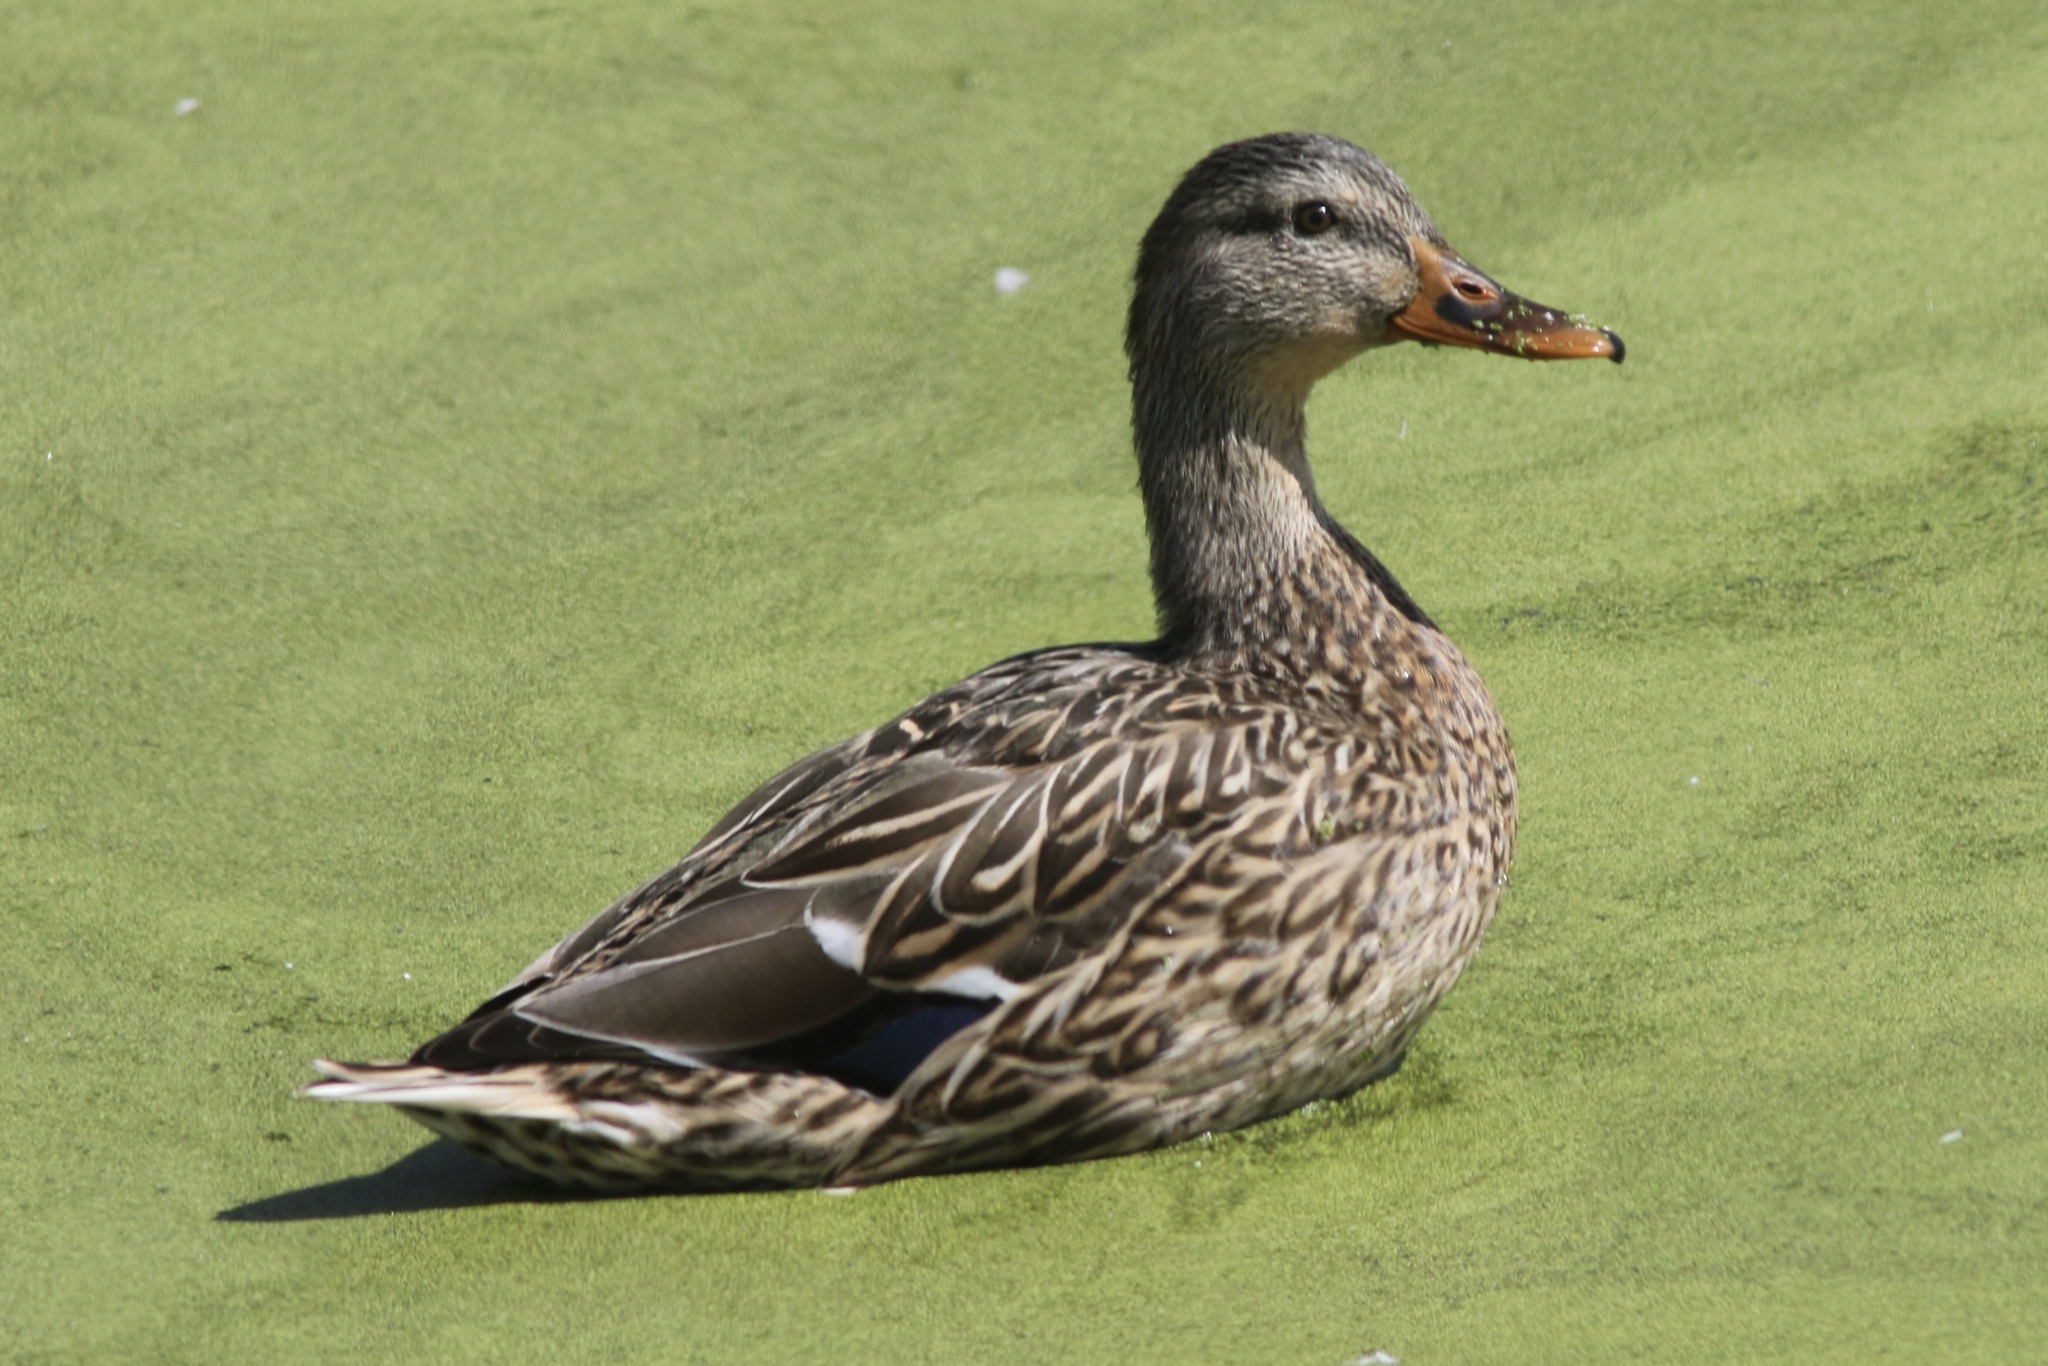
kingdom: Animalia
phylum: Chordata
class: Aves
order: Anseriformes
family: Anatidae
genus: Anas
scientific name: Anas platyrhynchos
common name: Mallard
